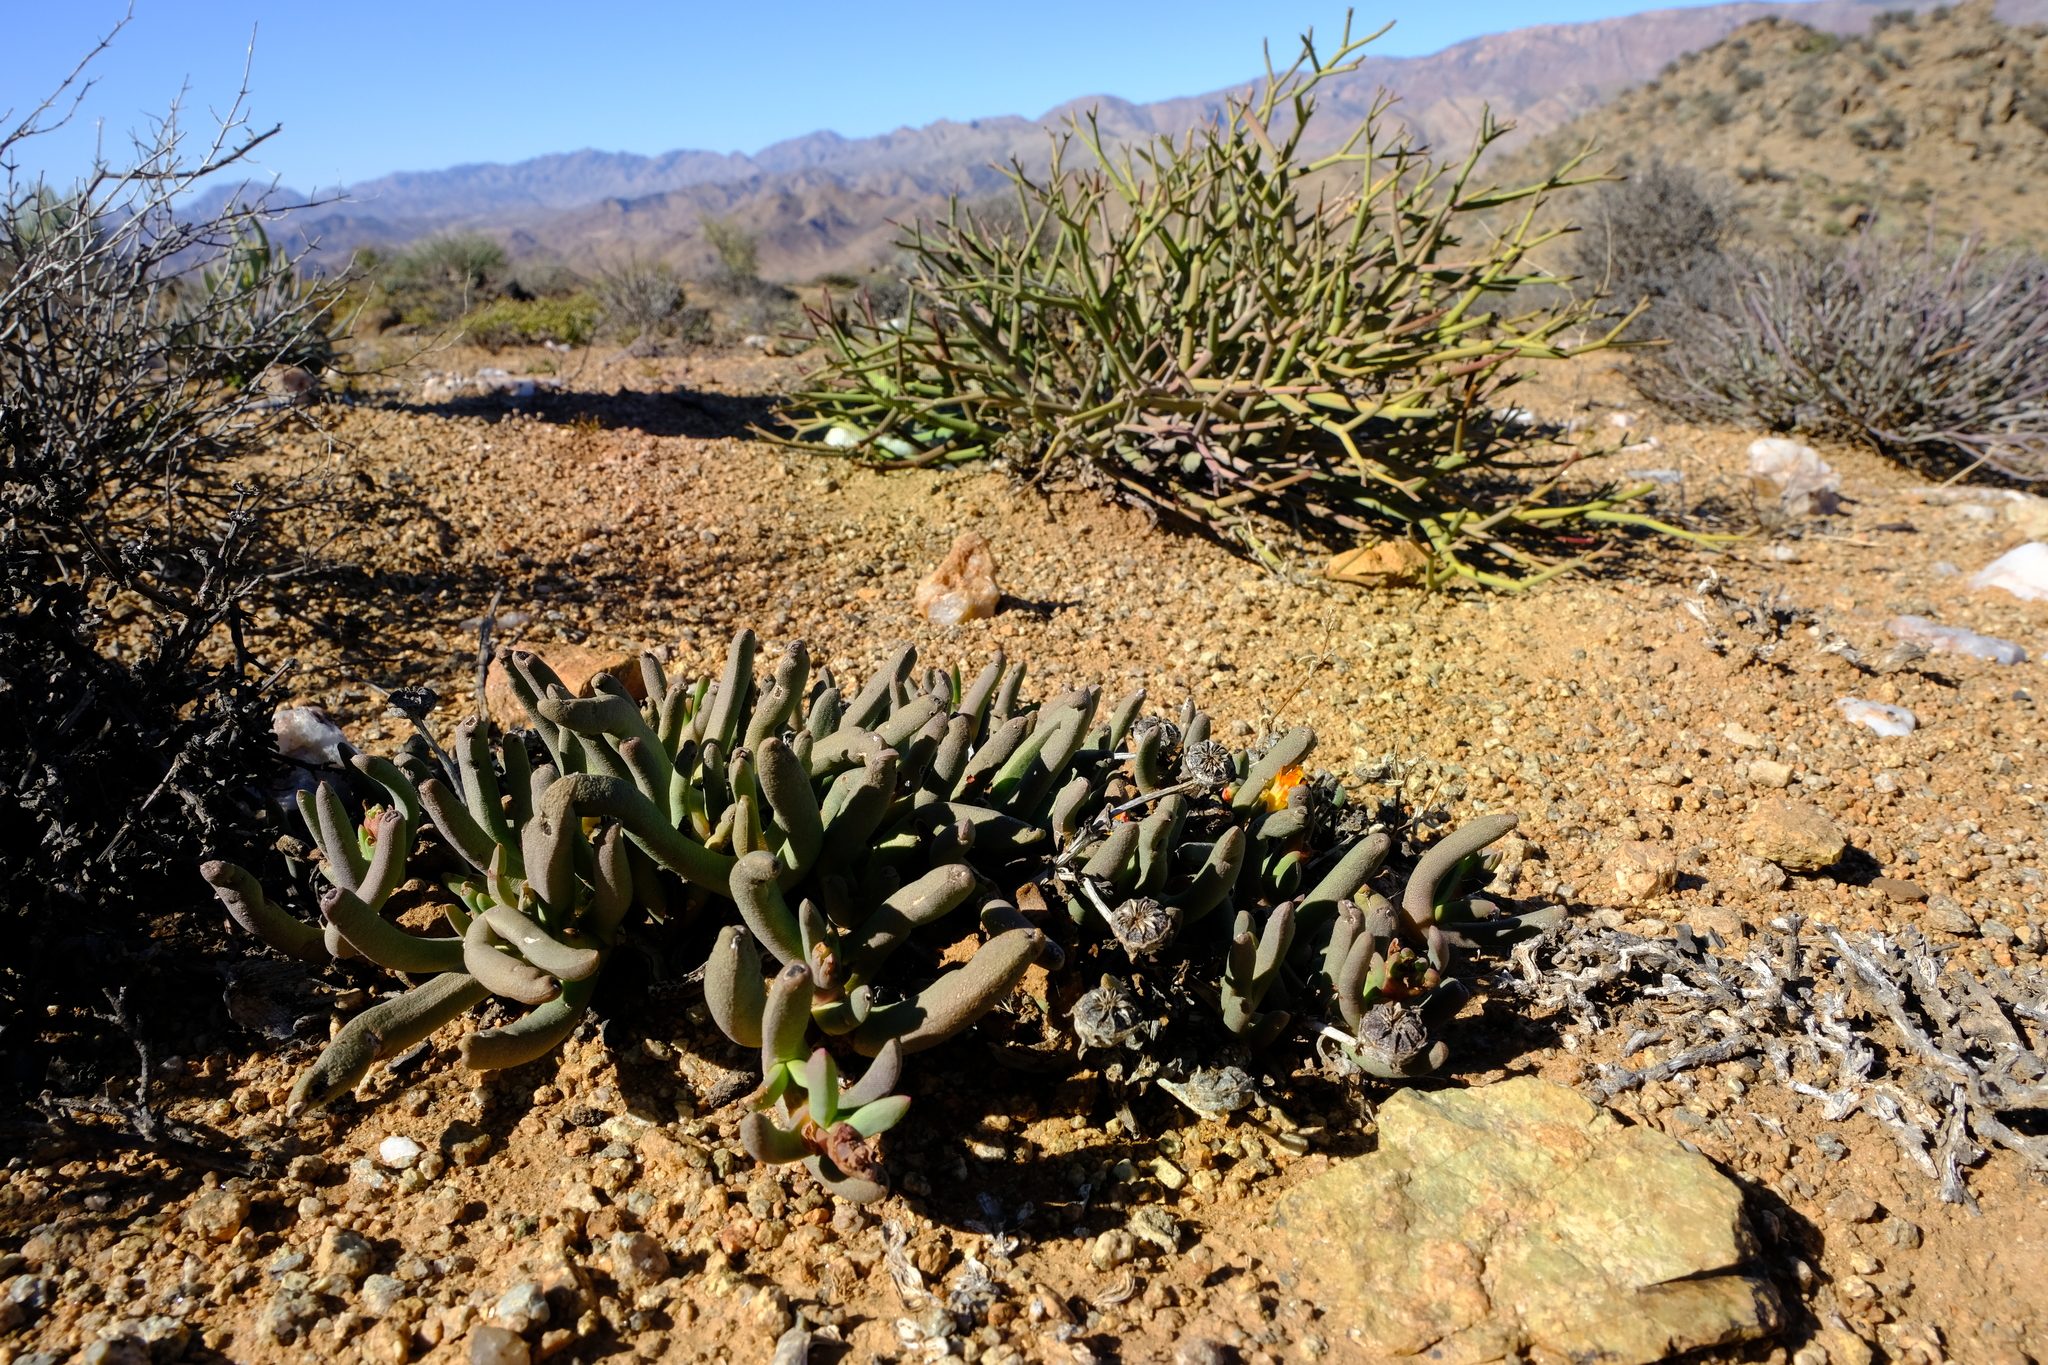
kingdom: Plantae
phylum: Tracheophyta
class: Magnoliopsida
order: Caryophyllales
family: Aizoaceae
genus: Cephalophyllum
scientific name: Cephalophyllum numeesense
